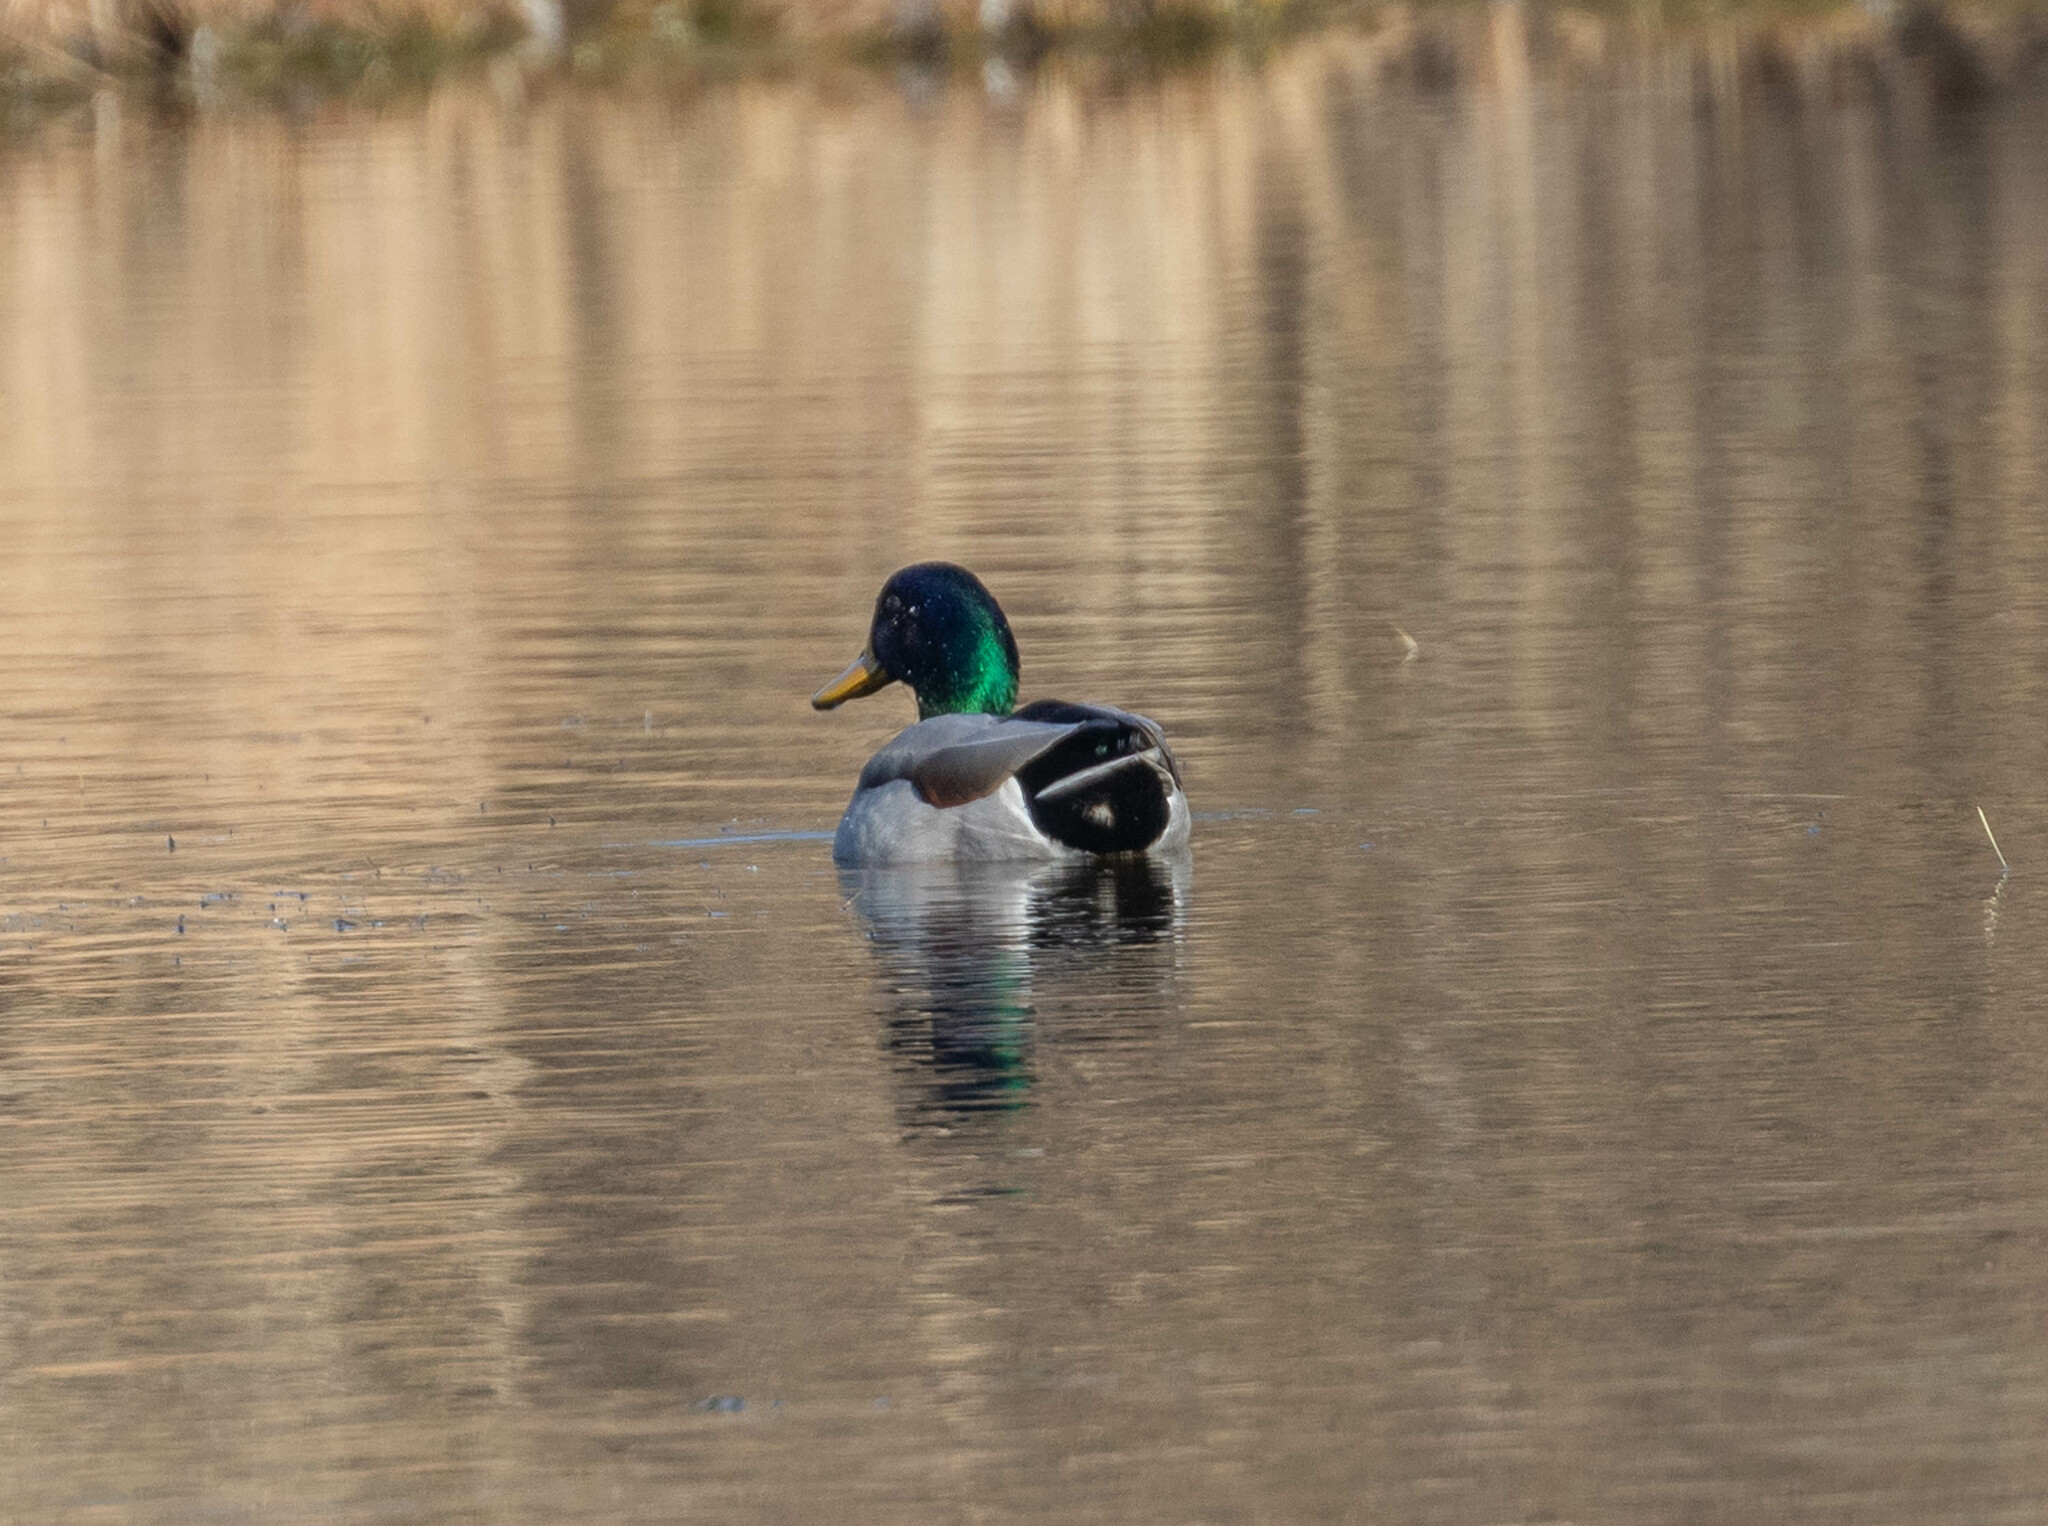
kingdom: Animalia
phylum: Chordata
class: Aves
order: Anseriformes
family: Anatidae
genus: Anas
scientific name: Anas platyrhynchos
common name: Mallard
